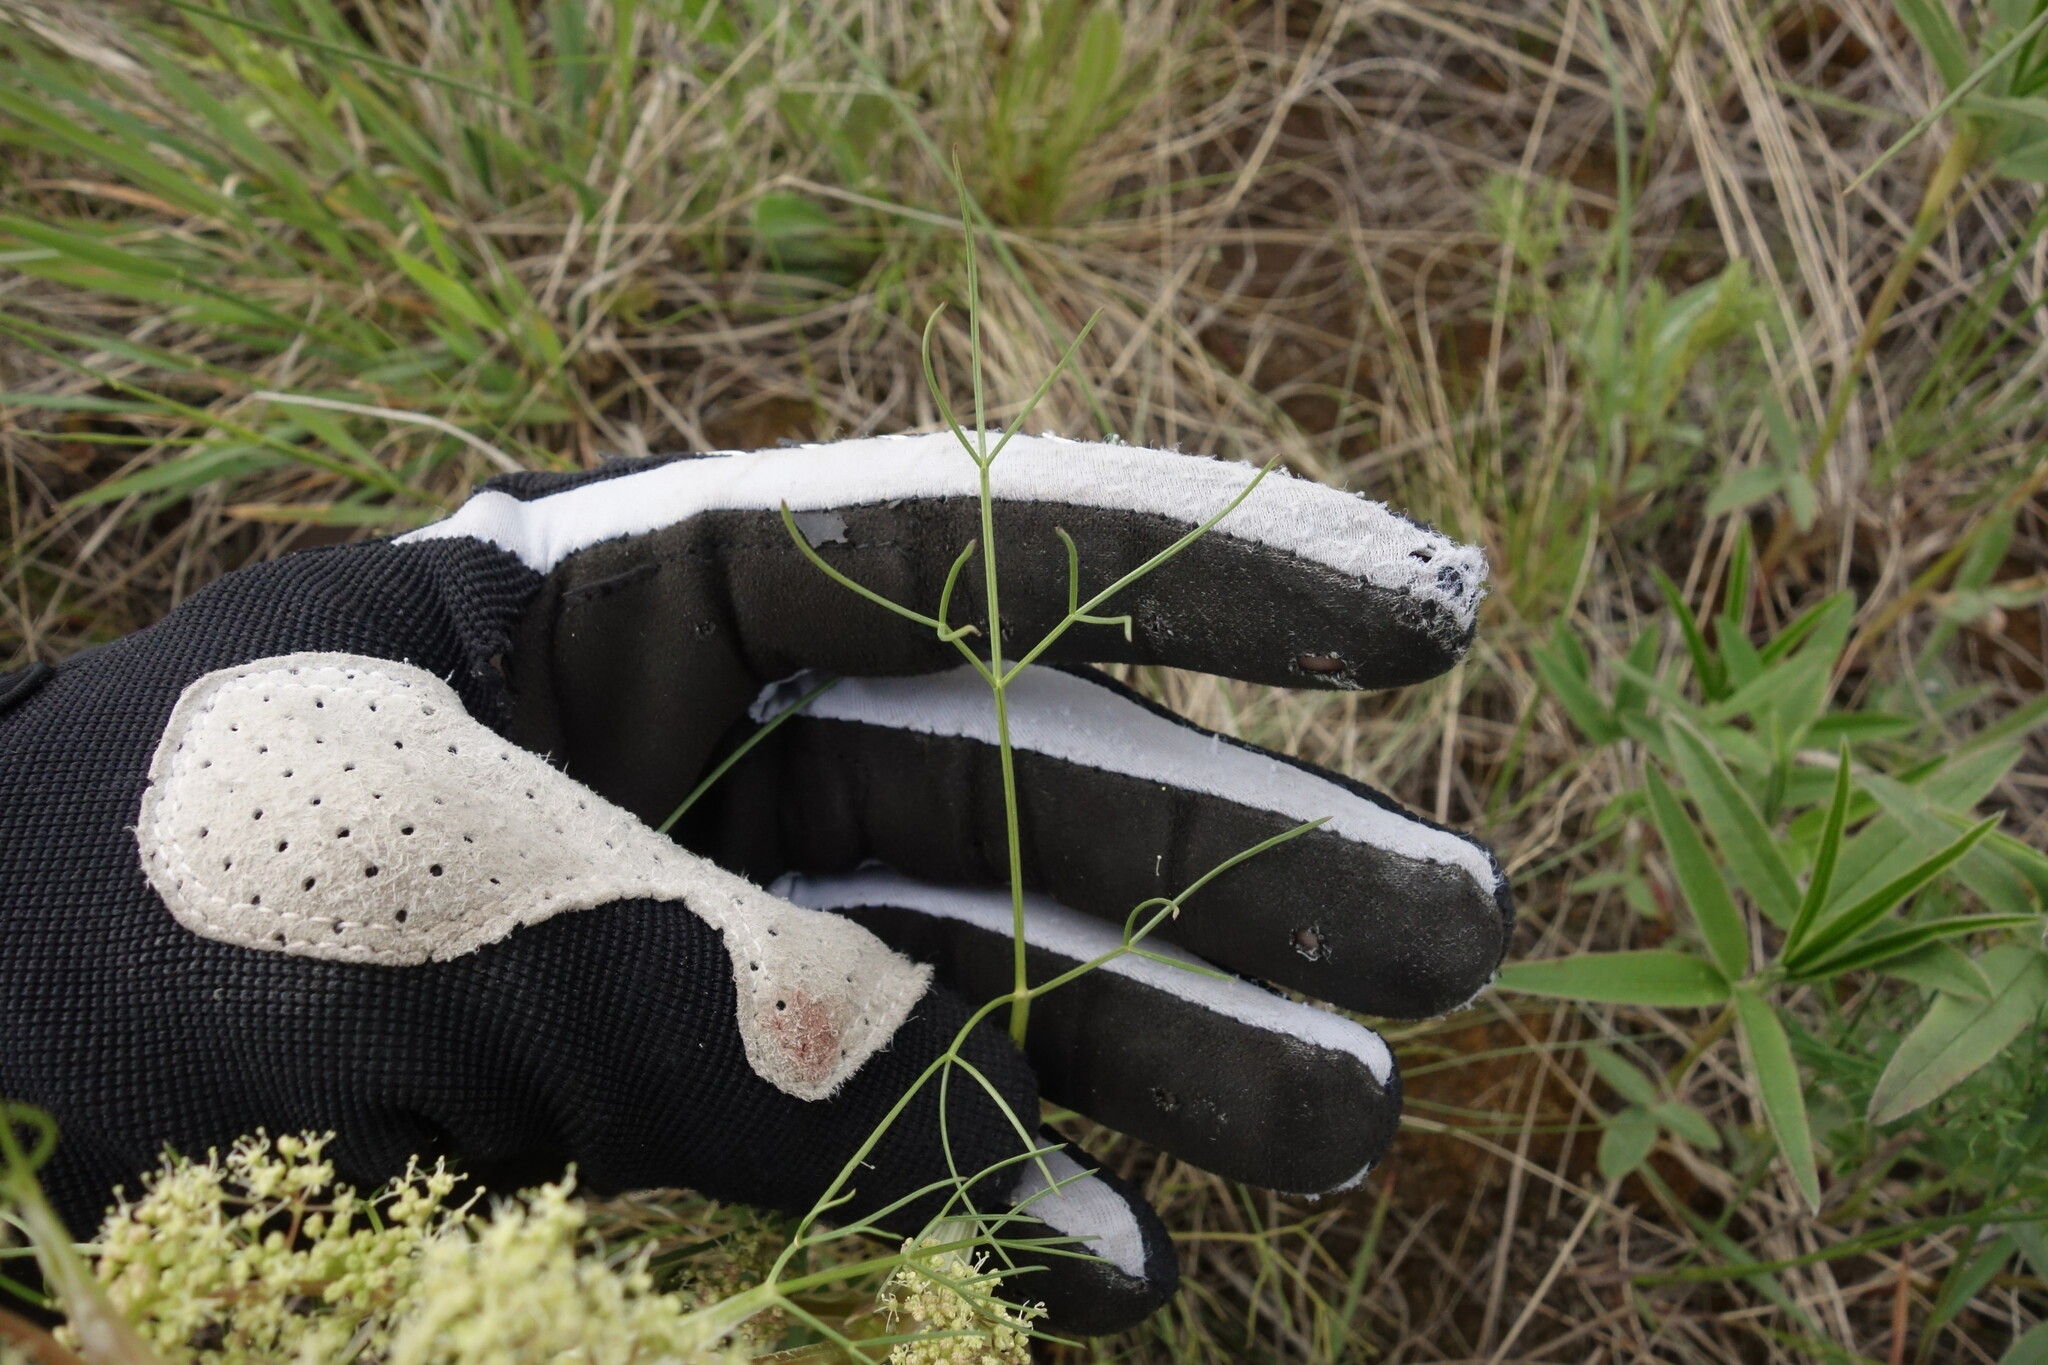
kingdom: Plantae
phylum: Tracheophyta
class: Magnoliopsida
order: Apiales
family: Apiaceae
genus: Trinia
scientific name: Trinia multicaulis
